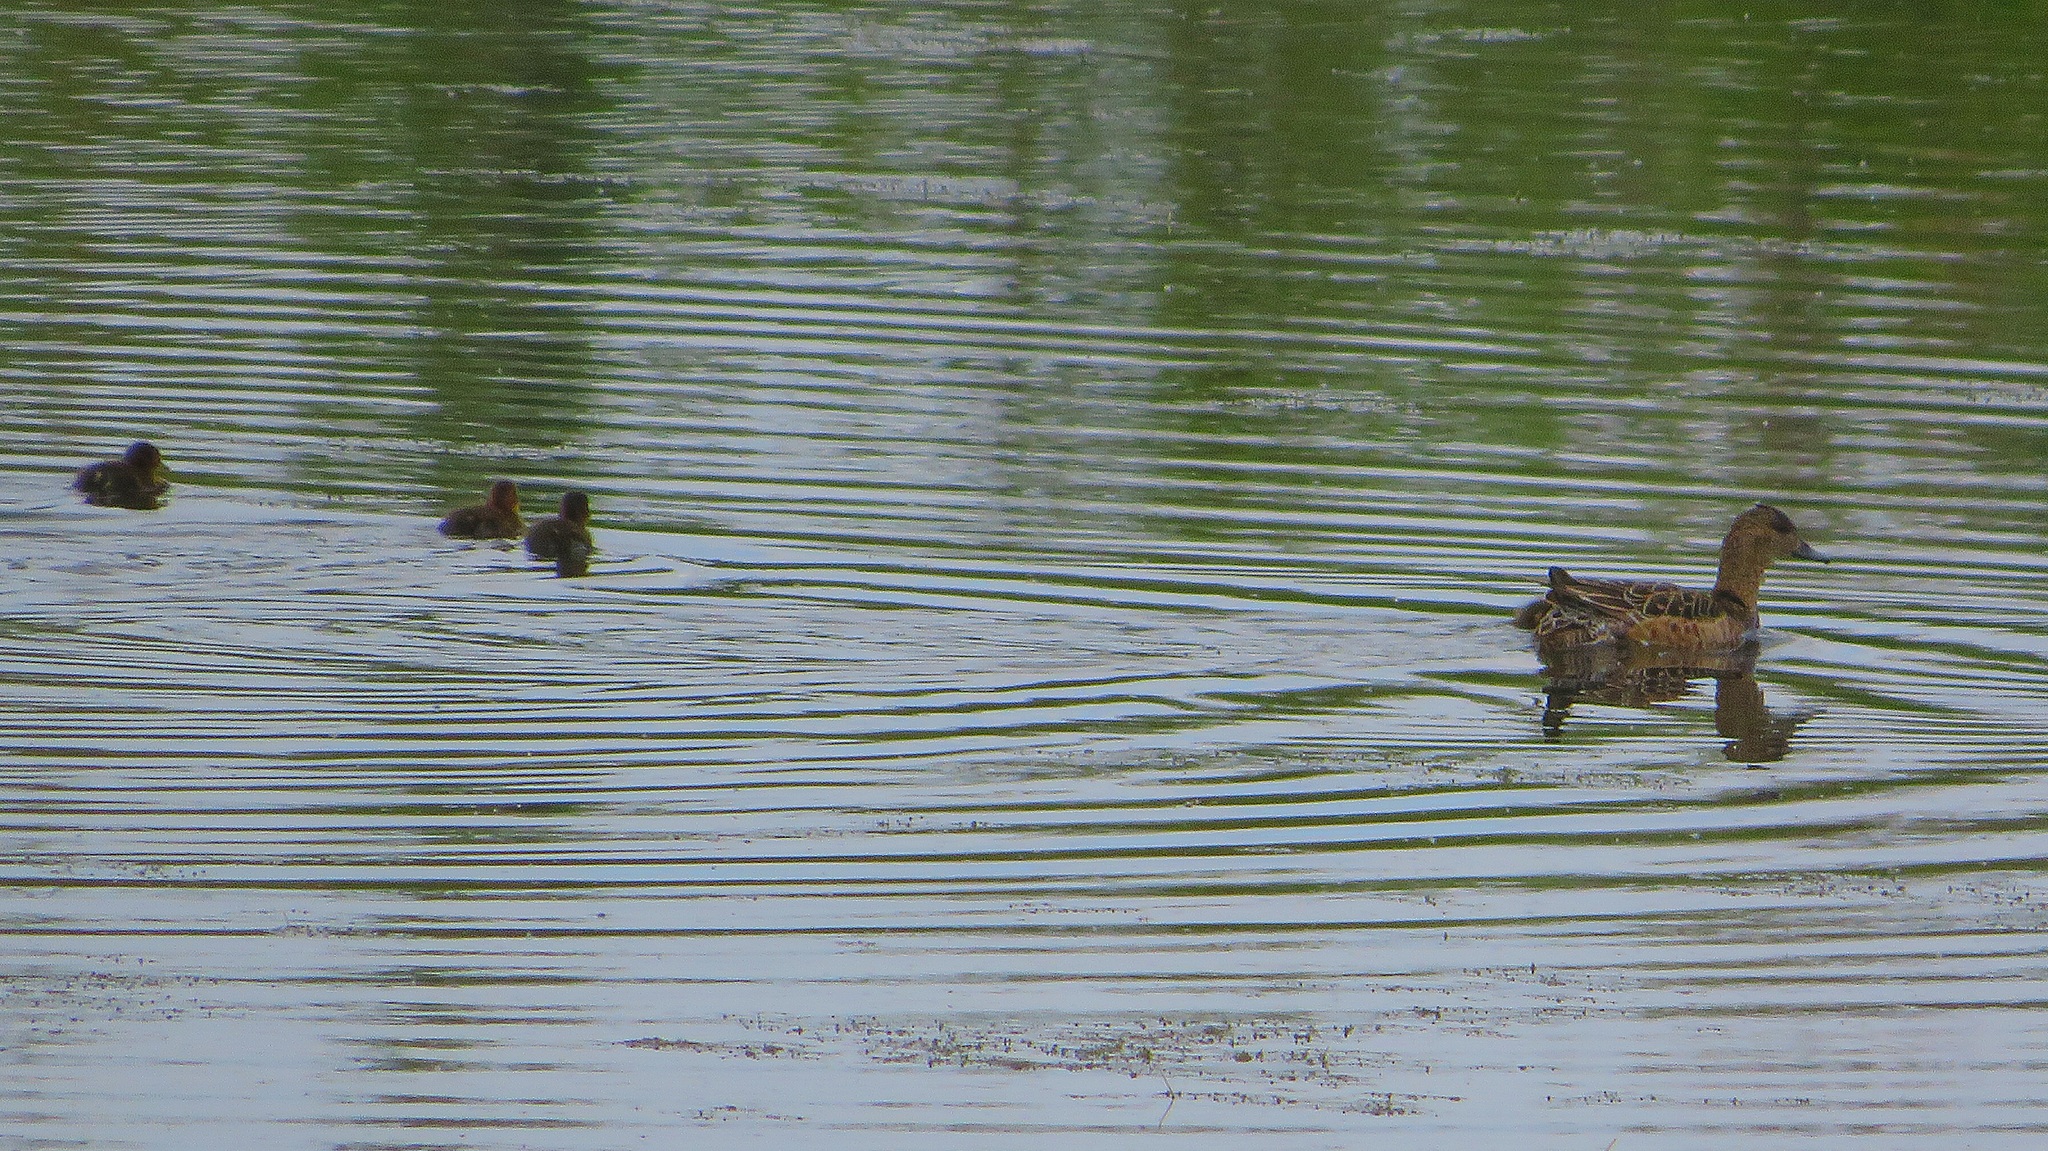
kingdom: Animalia
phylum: Chordata
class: Aves
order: Anseriformes
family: Anatidae
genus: Mareca
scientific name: Mareca penelope
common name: Eurasian wigeon
